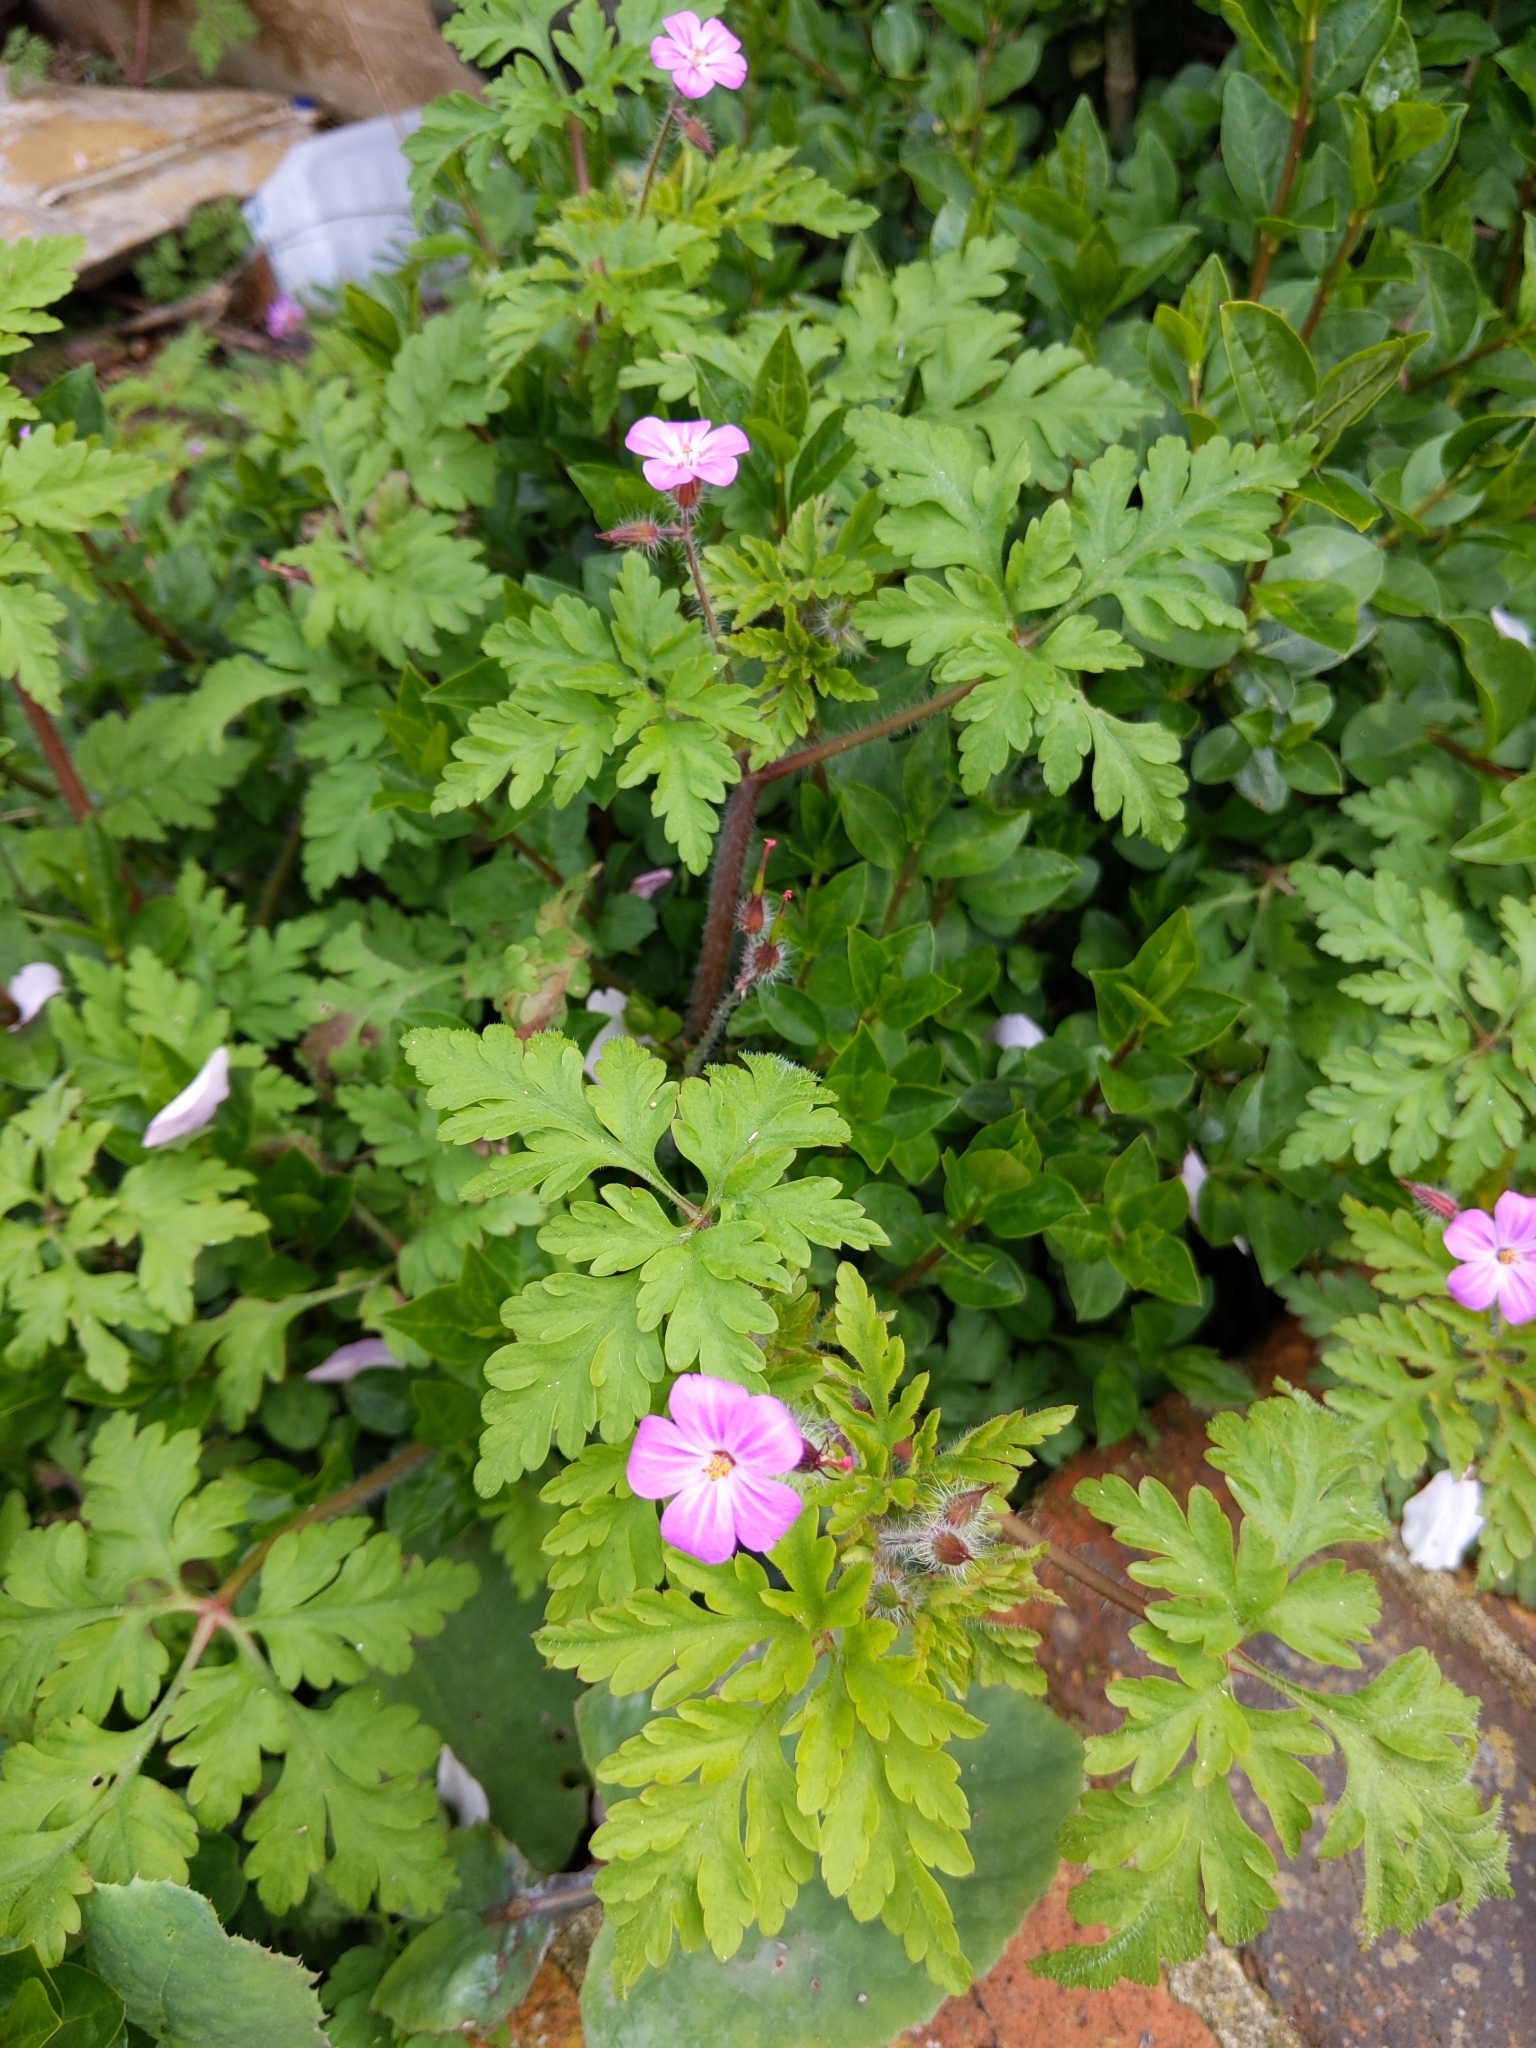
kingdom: Plantae
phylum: Tracheophyta
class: Magnoliopsida
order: Geraniales
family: Geraniaceae
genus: Geranium
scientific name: Geranium robertianum
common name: Herb-robert
